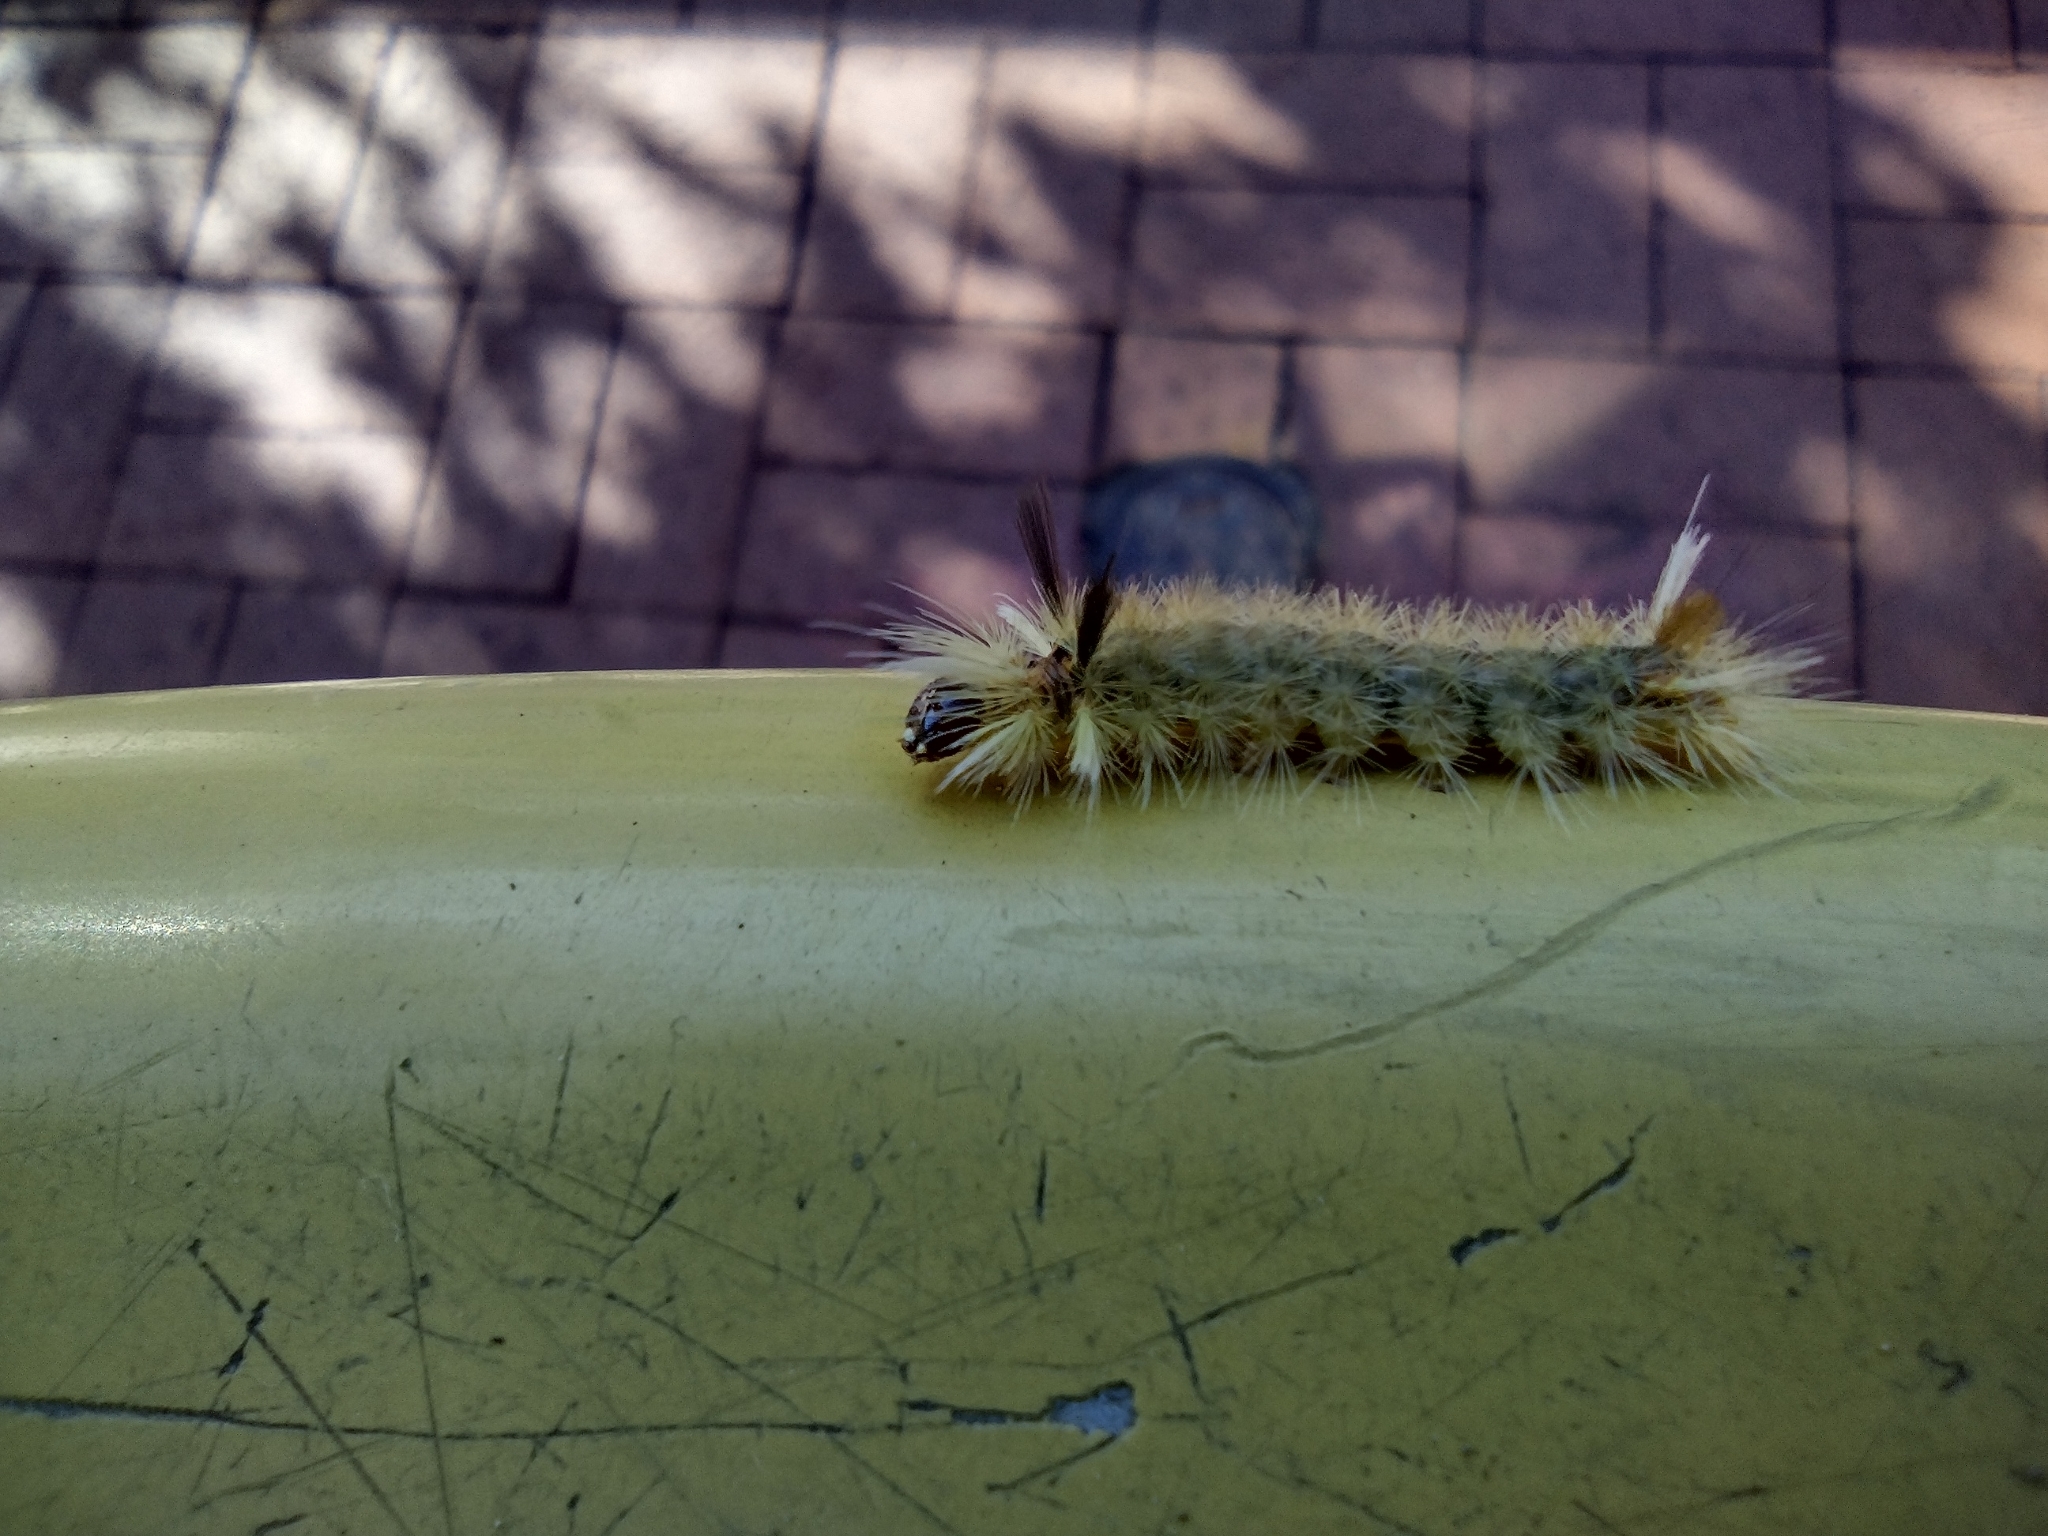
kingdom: Animalia
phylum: Arthropoda
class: Insecta
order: Lepidoptera
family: Erebidae
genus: Halysidota
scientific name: Halysidota tessellaris
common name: Banded tussock moth
